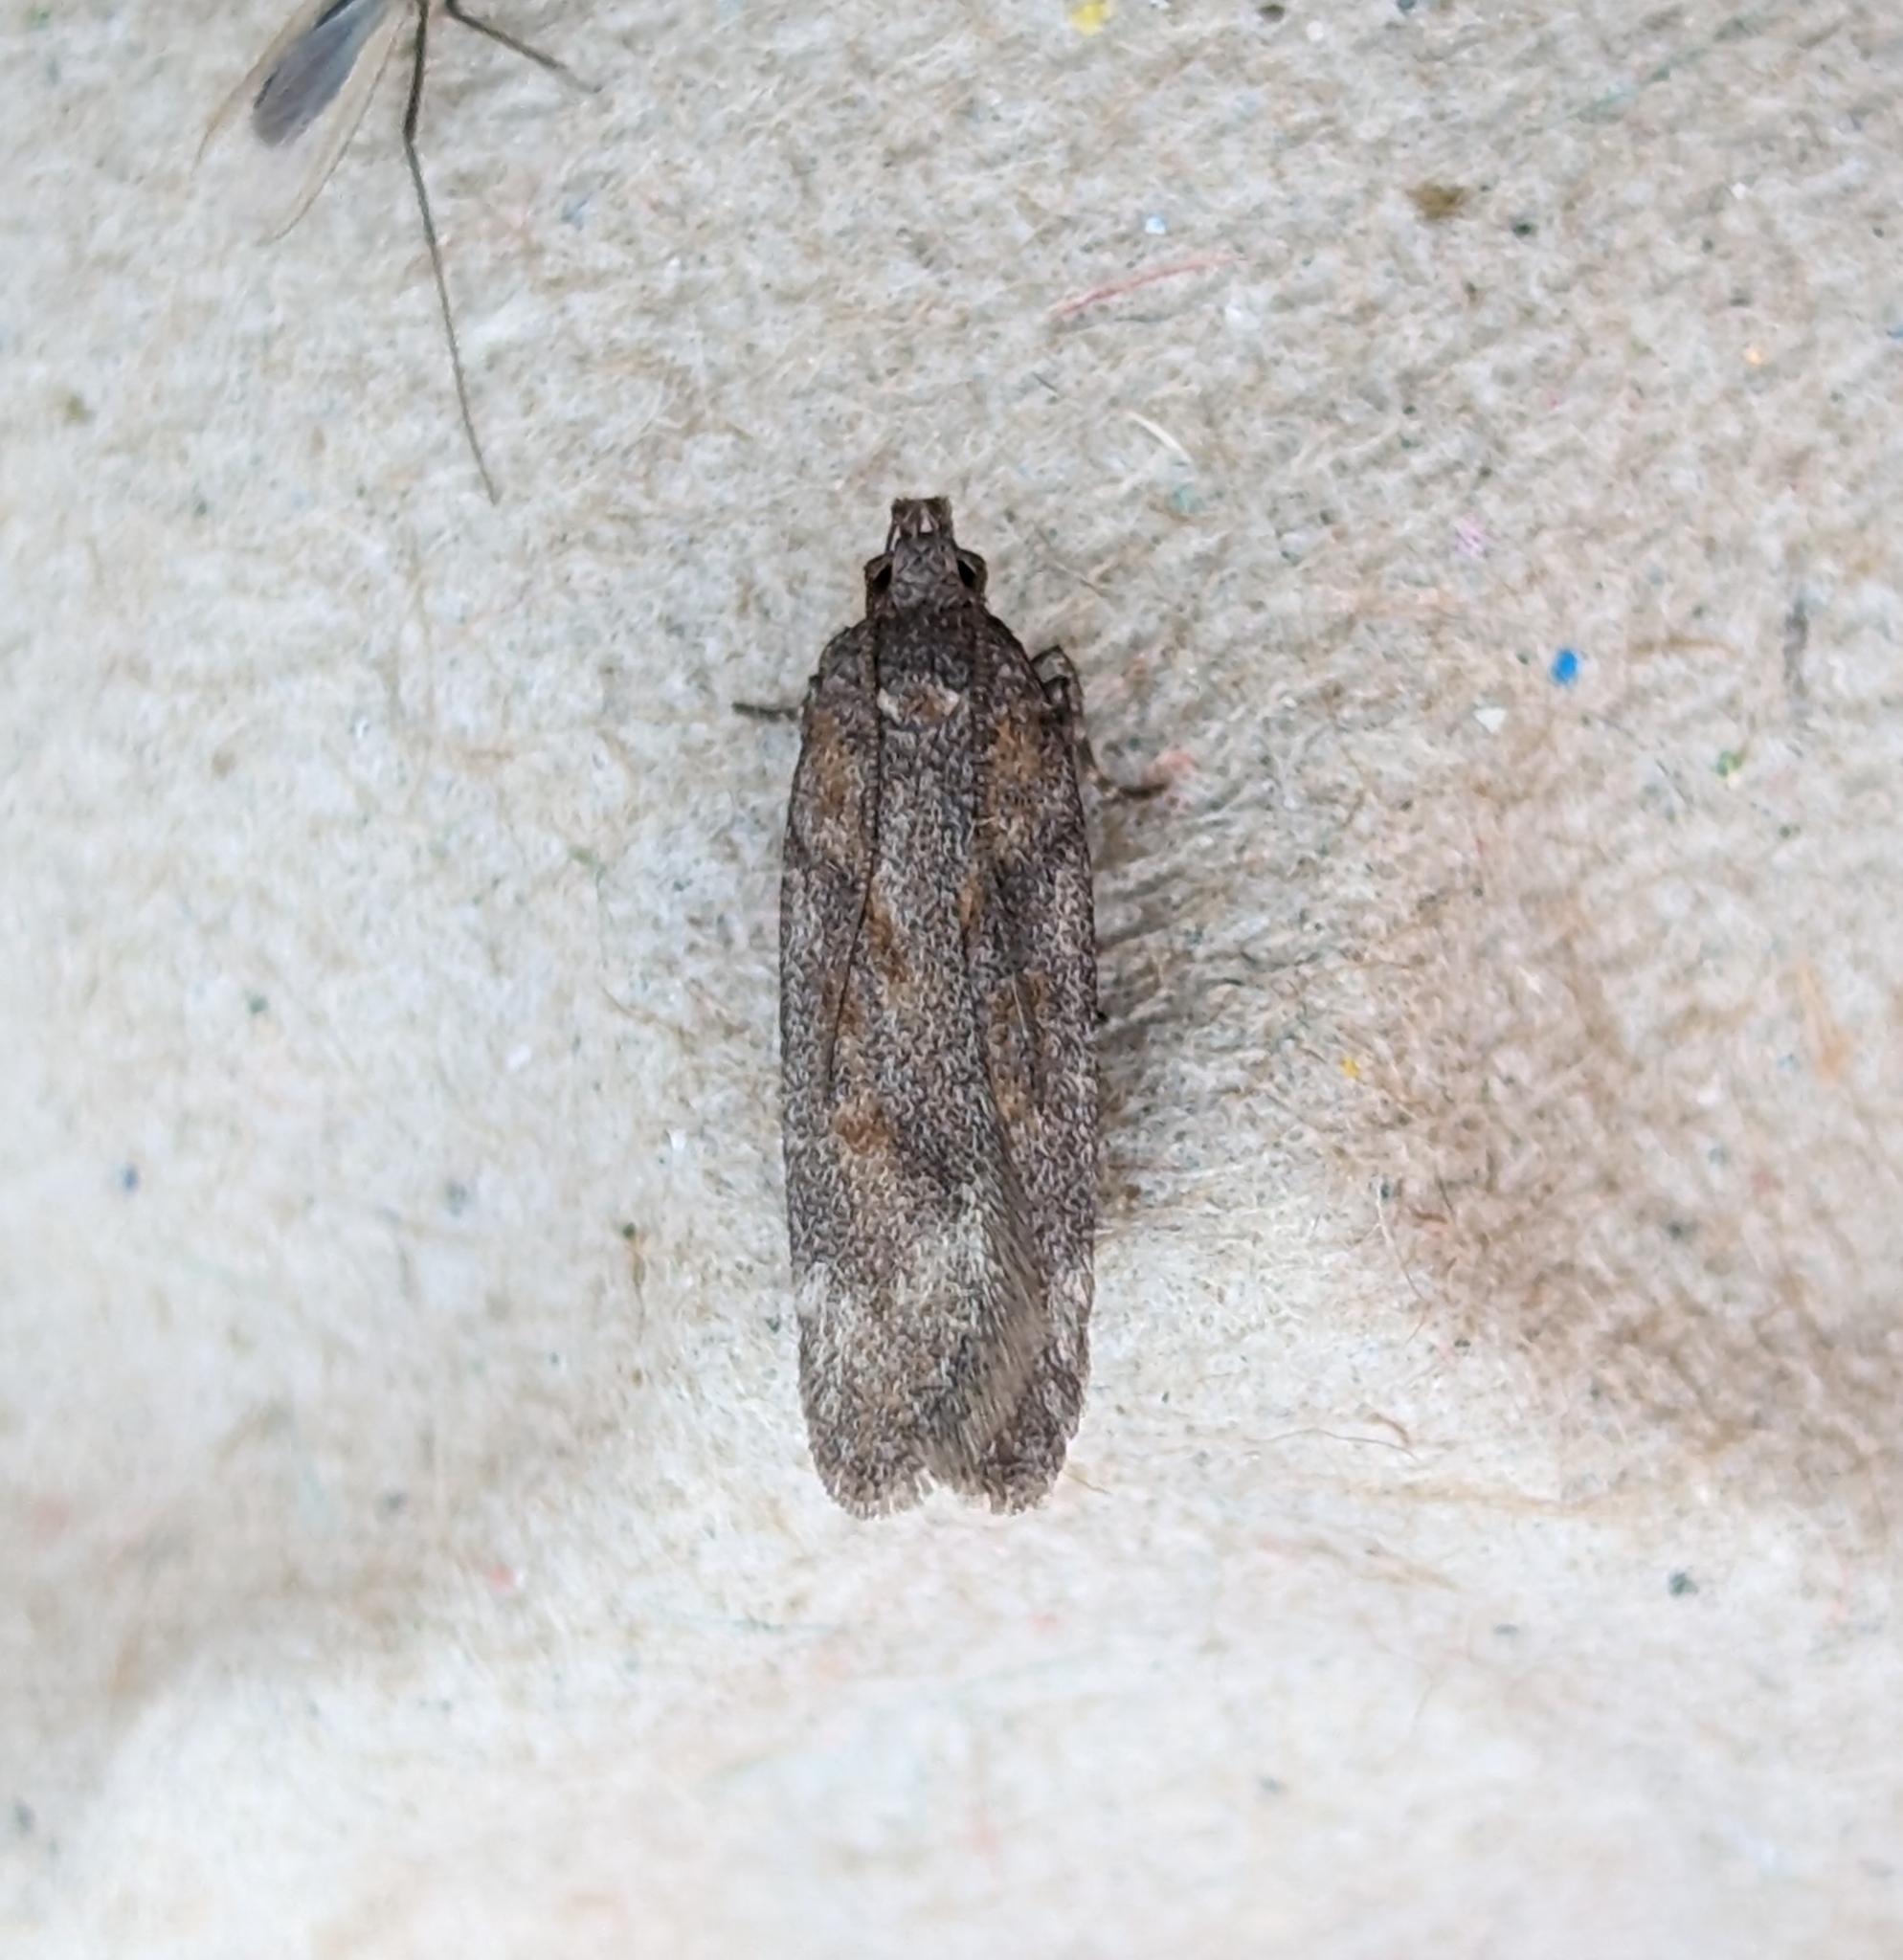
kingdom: Animalia
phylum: Arthropoda
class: Insecta
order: Lepidoptera
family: Gelechiidae
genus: Filatima
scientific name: Filatima abactella
